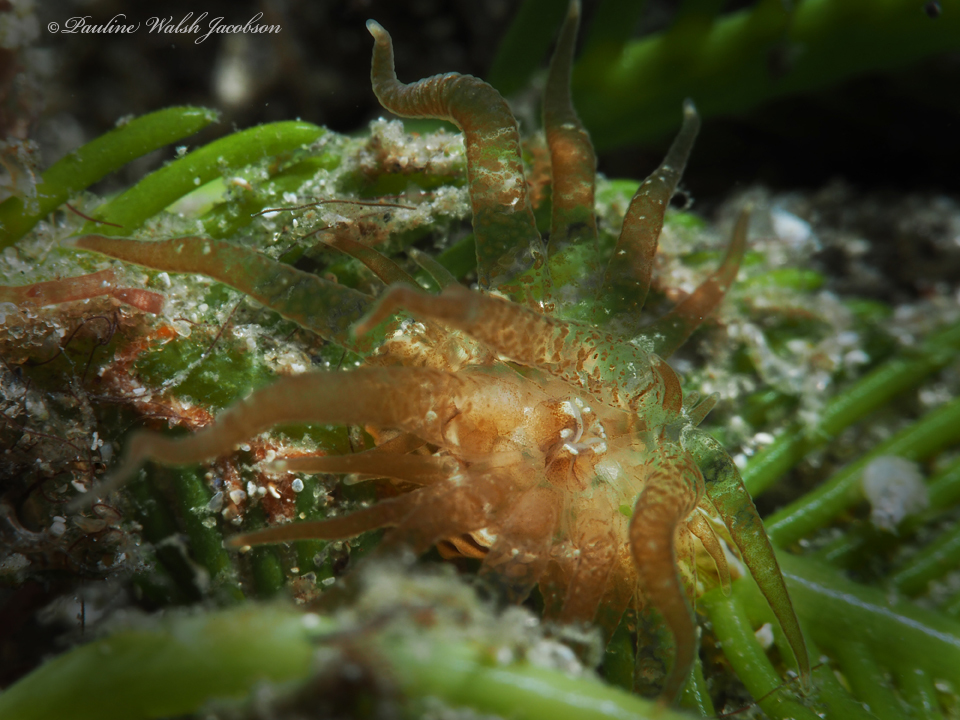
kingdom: Animalia
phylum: Cnidaria
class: Anthozoa
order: Actiniaria
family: Boloceroididae
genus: Bunodeopsis
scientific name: Bunodeopsis globulifera
